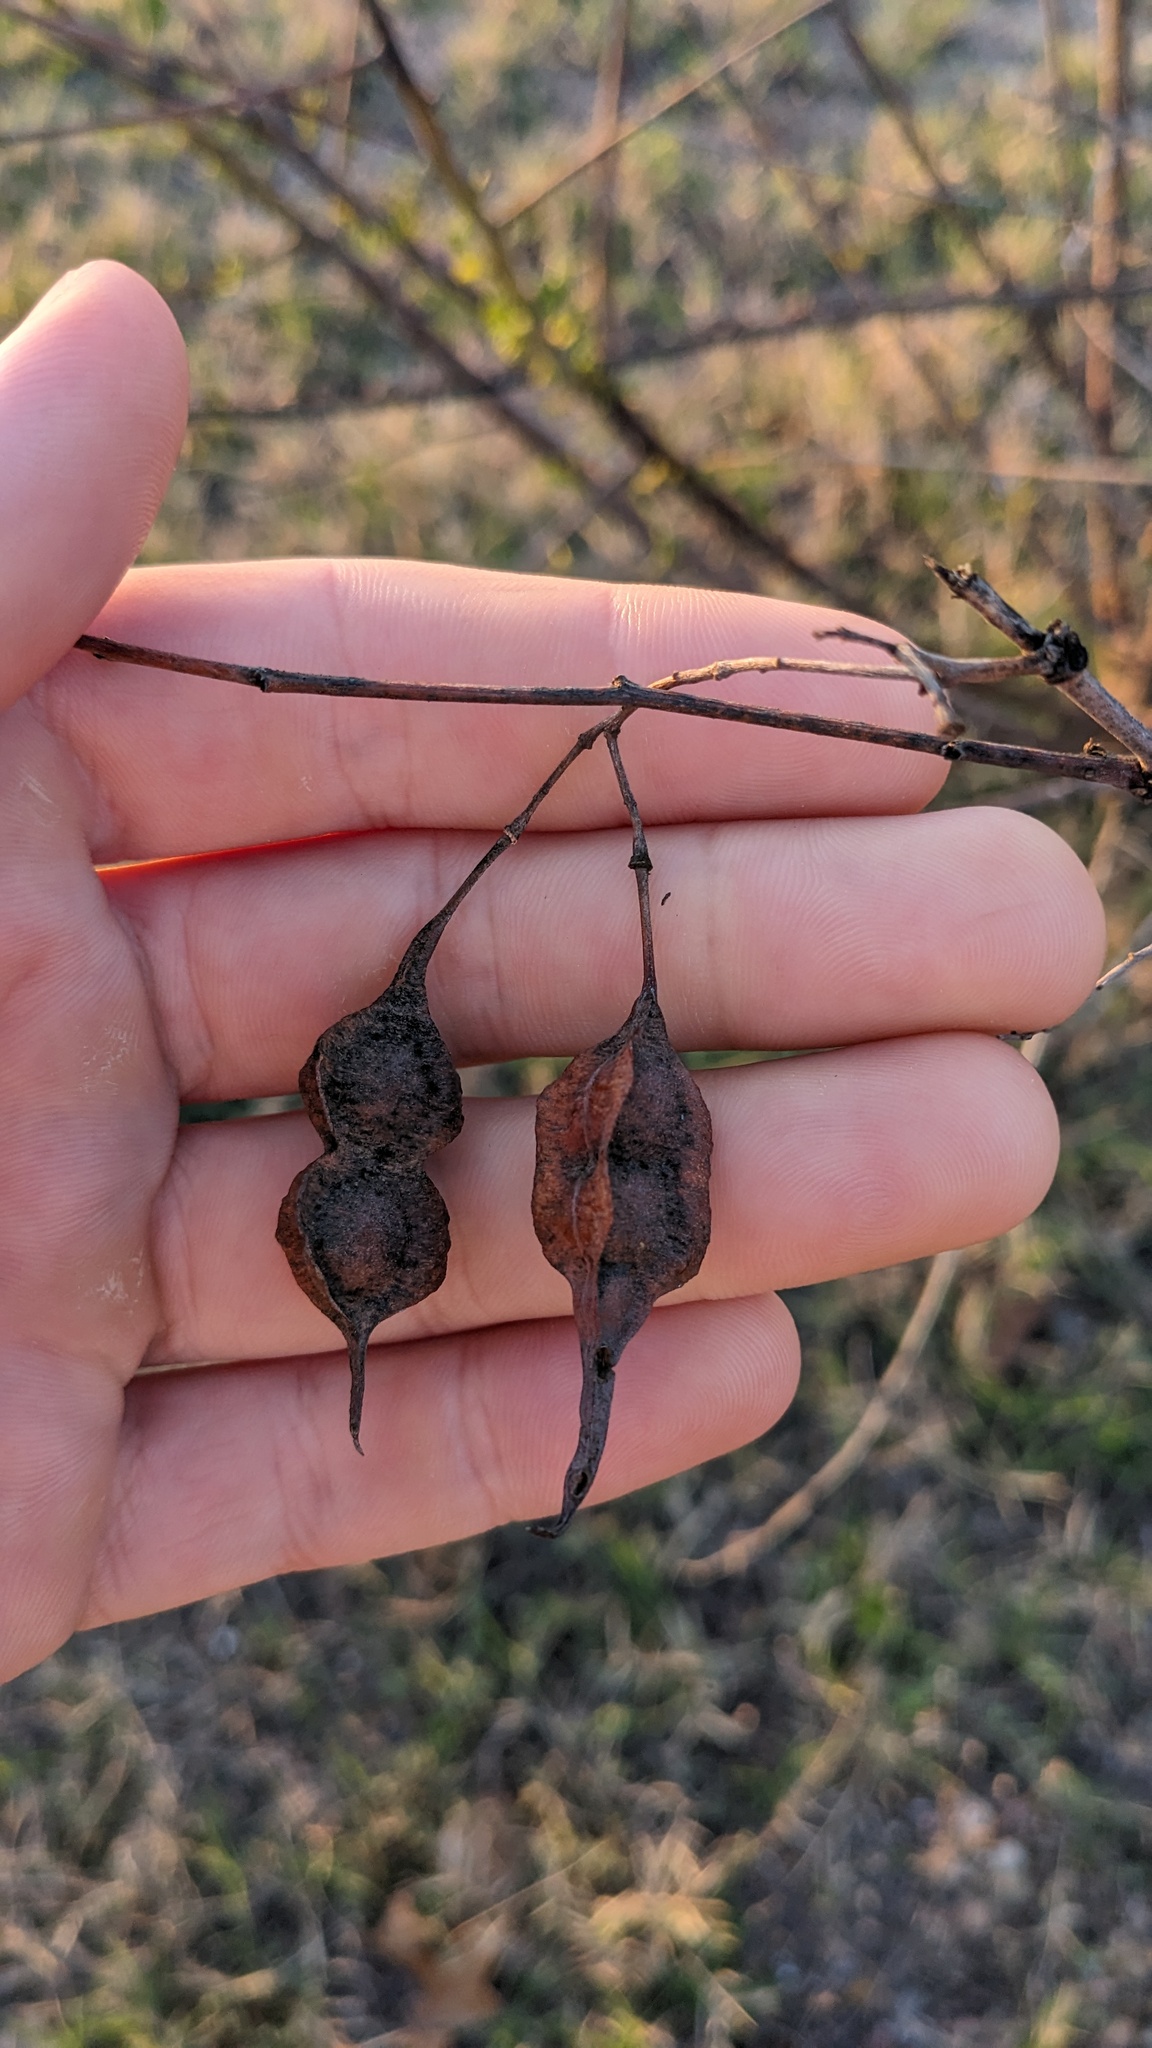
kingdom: Plantae
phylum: Tracheophyta
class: Magnoliopsida
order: Fabales
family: Fabaceae
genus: Sesbania
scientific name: Sesbania drummondii
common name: Poison-bean
